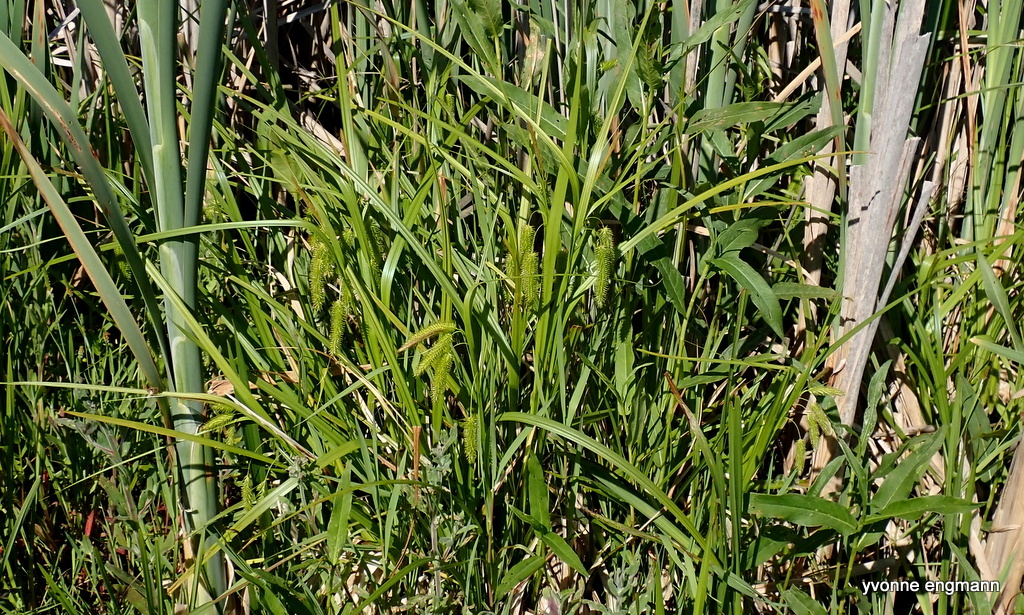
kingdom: Plantae
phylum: Tracheophyta
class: Liliopsida
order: Poales
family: Cyperaceae
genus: Carex
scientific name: Carex pseudocyperus
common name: Cyperus sedge
